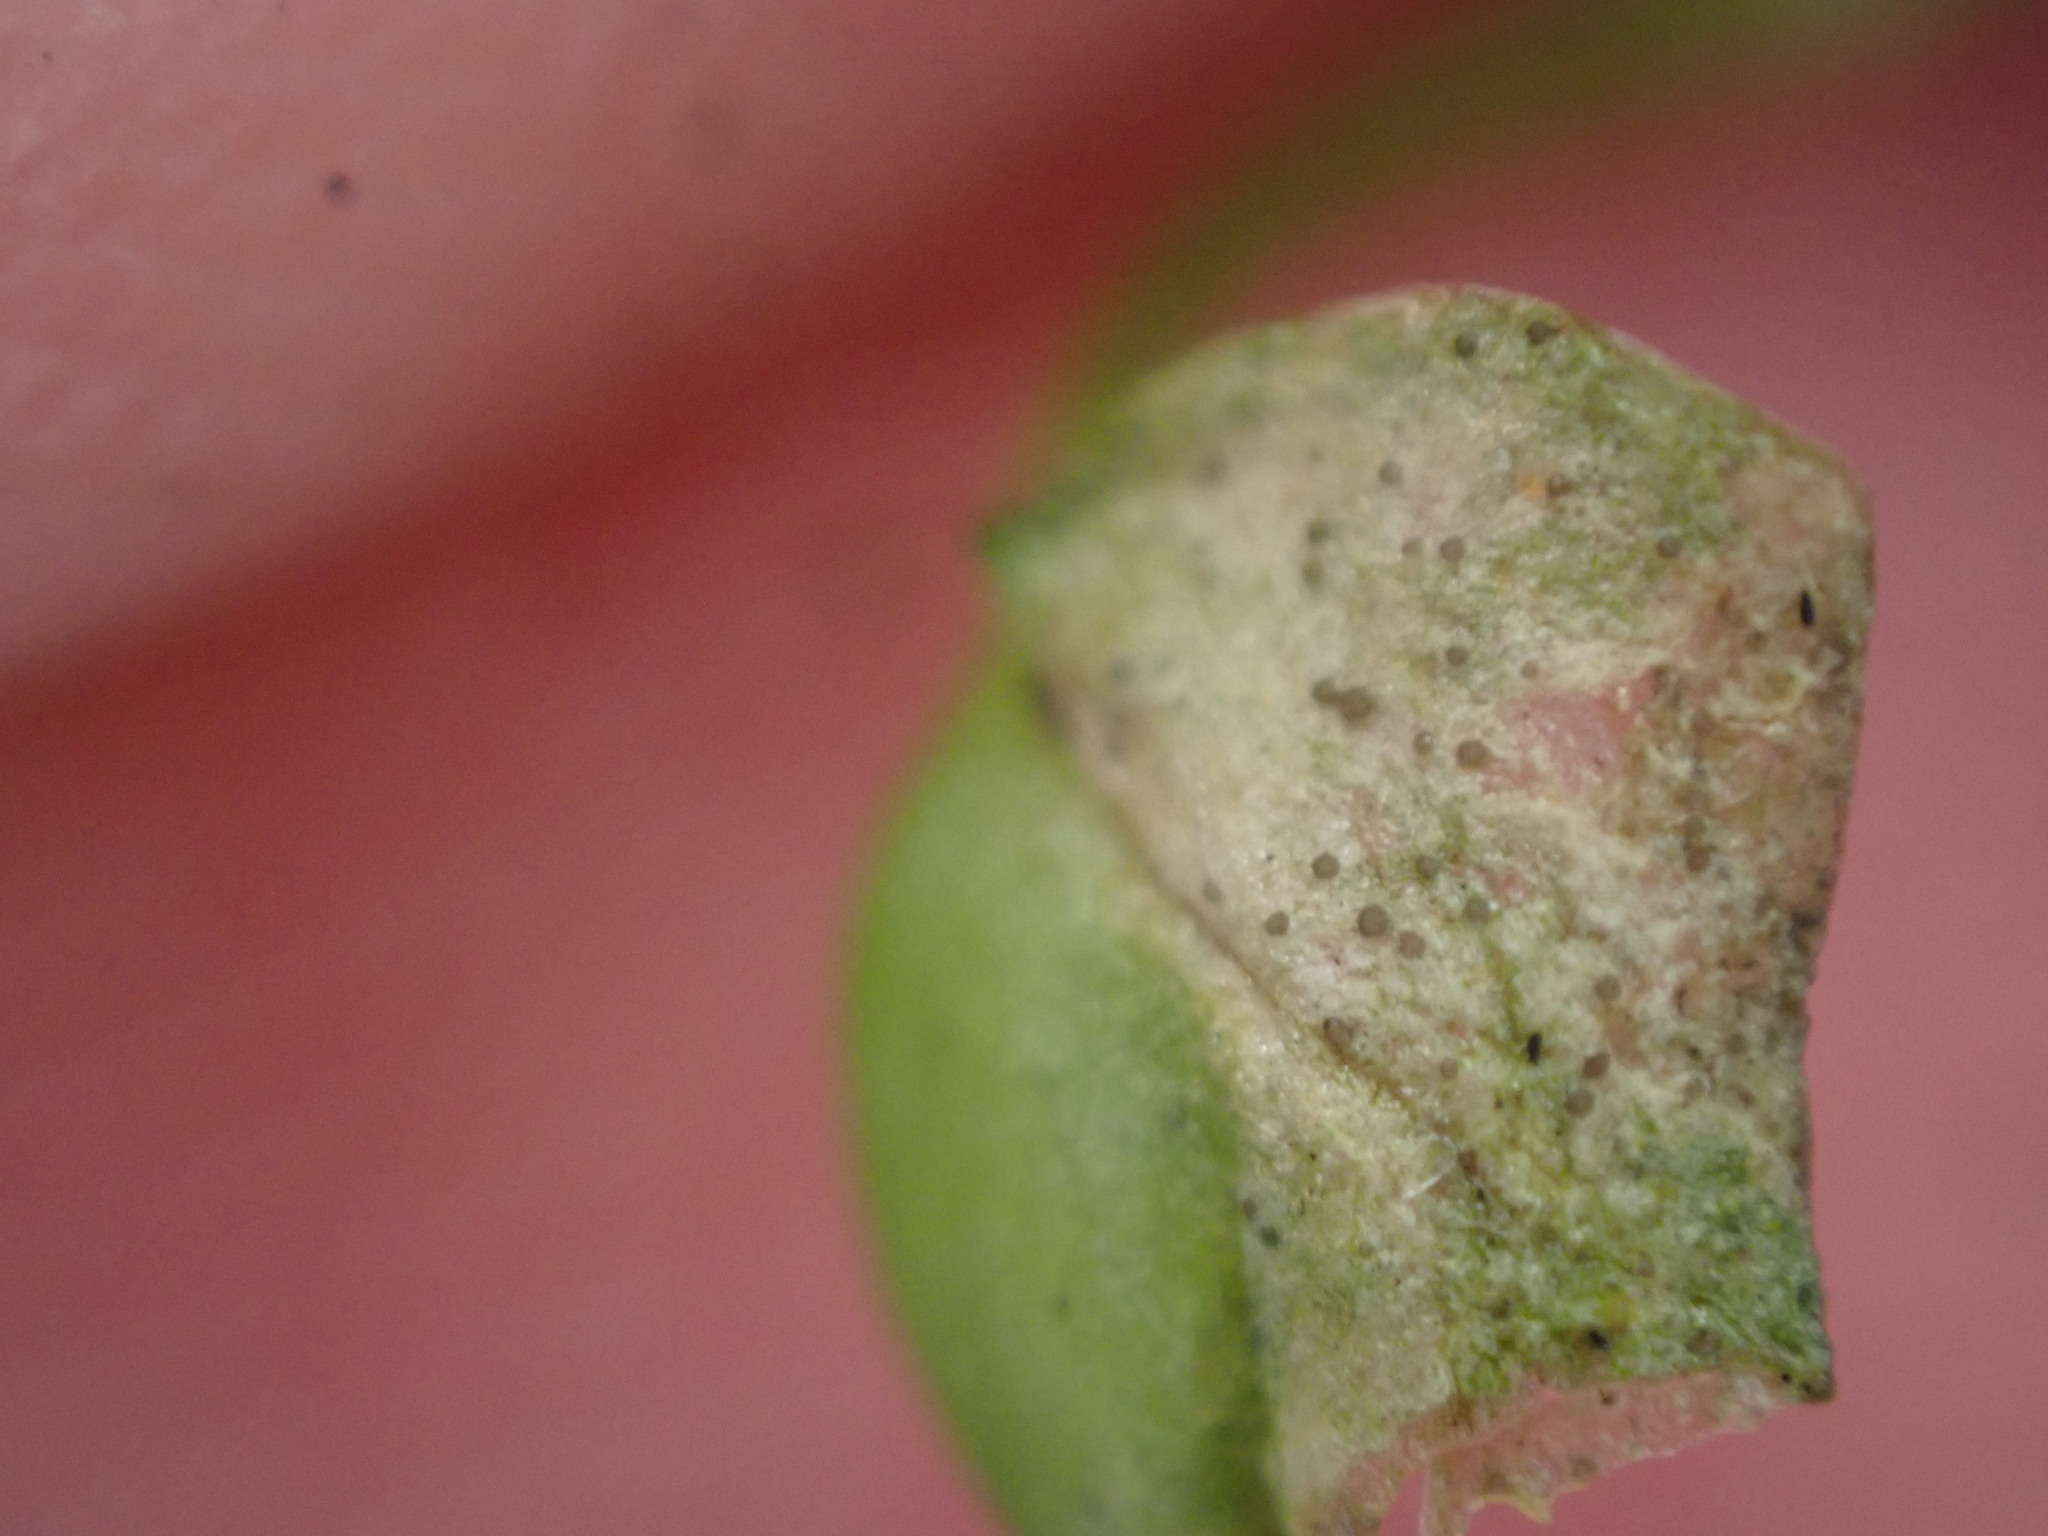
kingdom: Fungi
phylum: Ascomycota
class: Dothideomycetes
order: Mycosphaerellales
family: Mycosphaerellaceae
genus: Septoria
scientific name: Septoria stellariae
